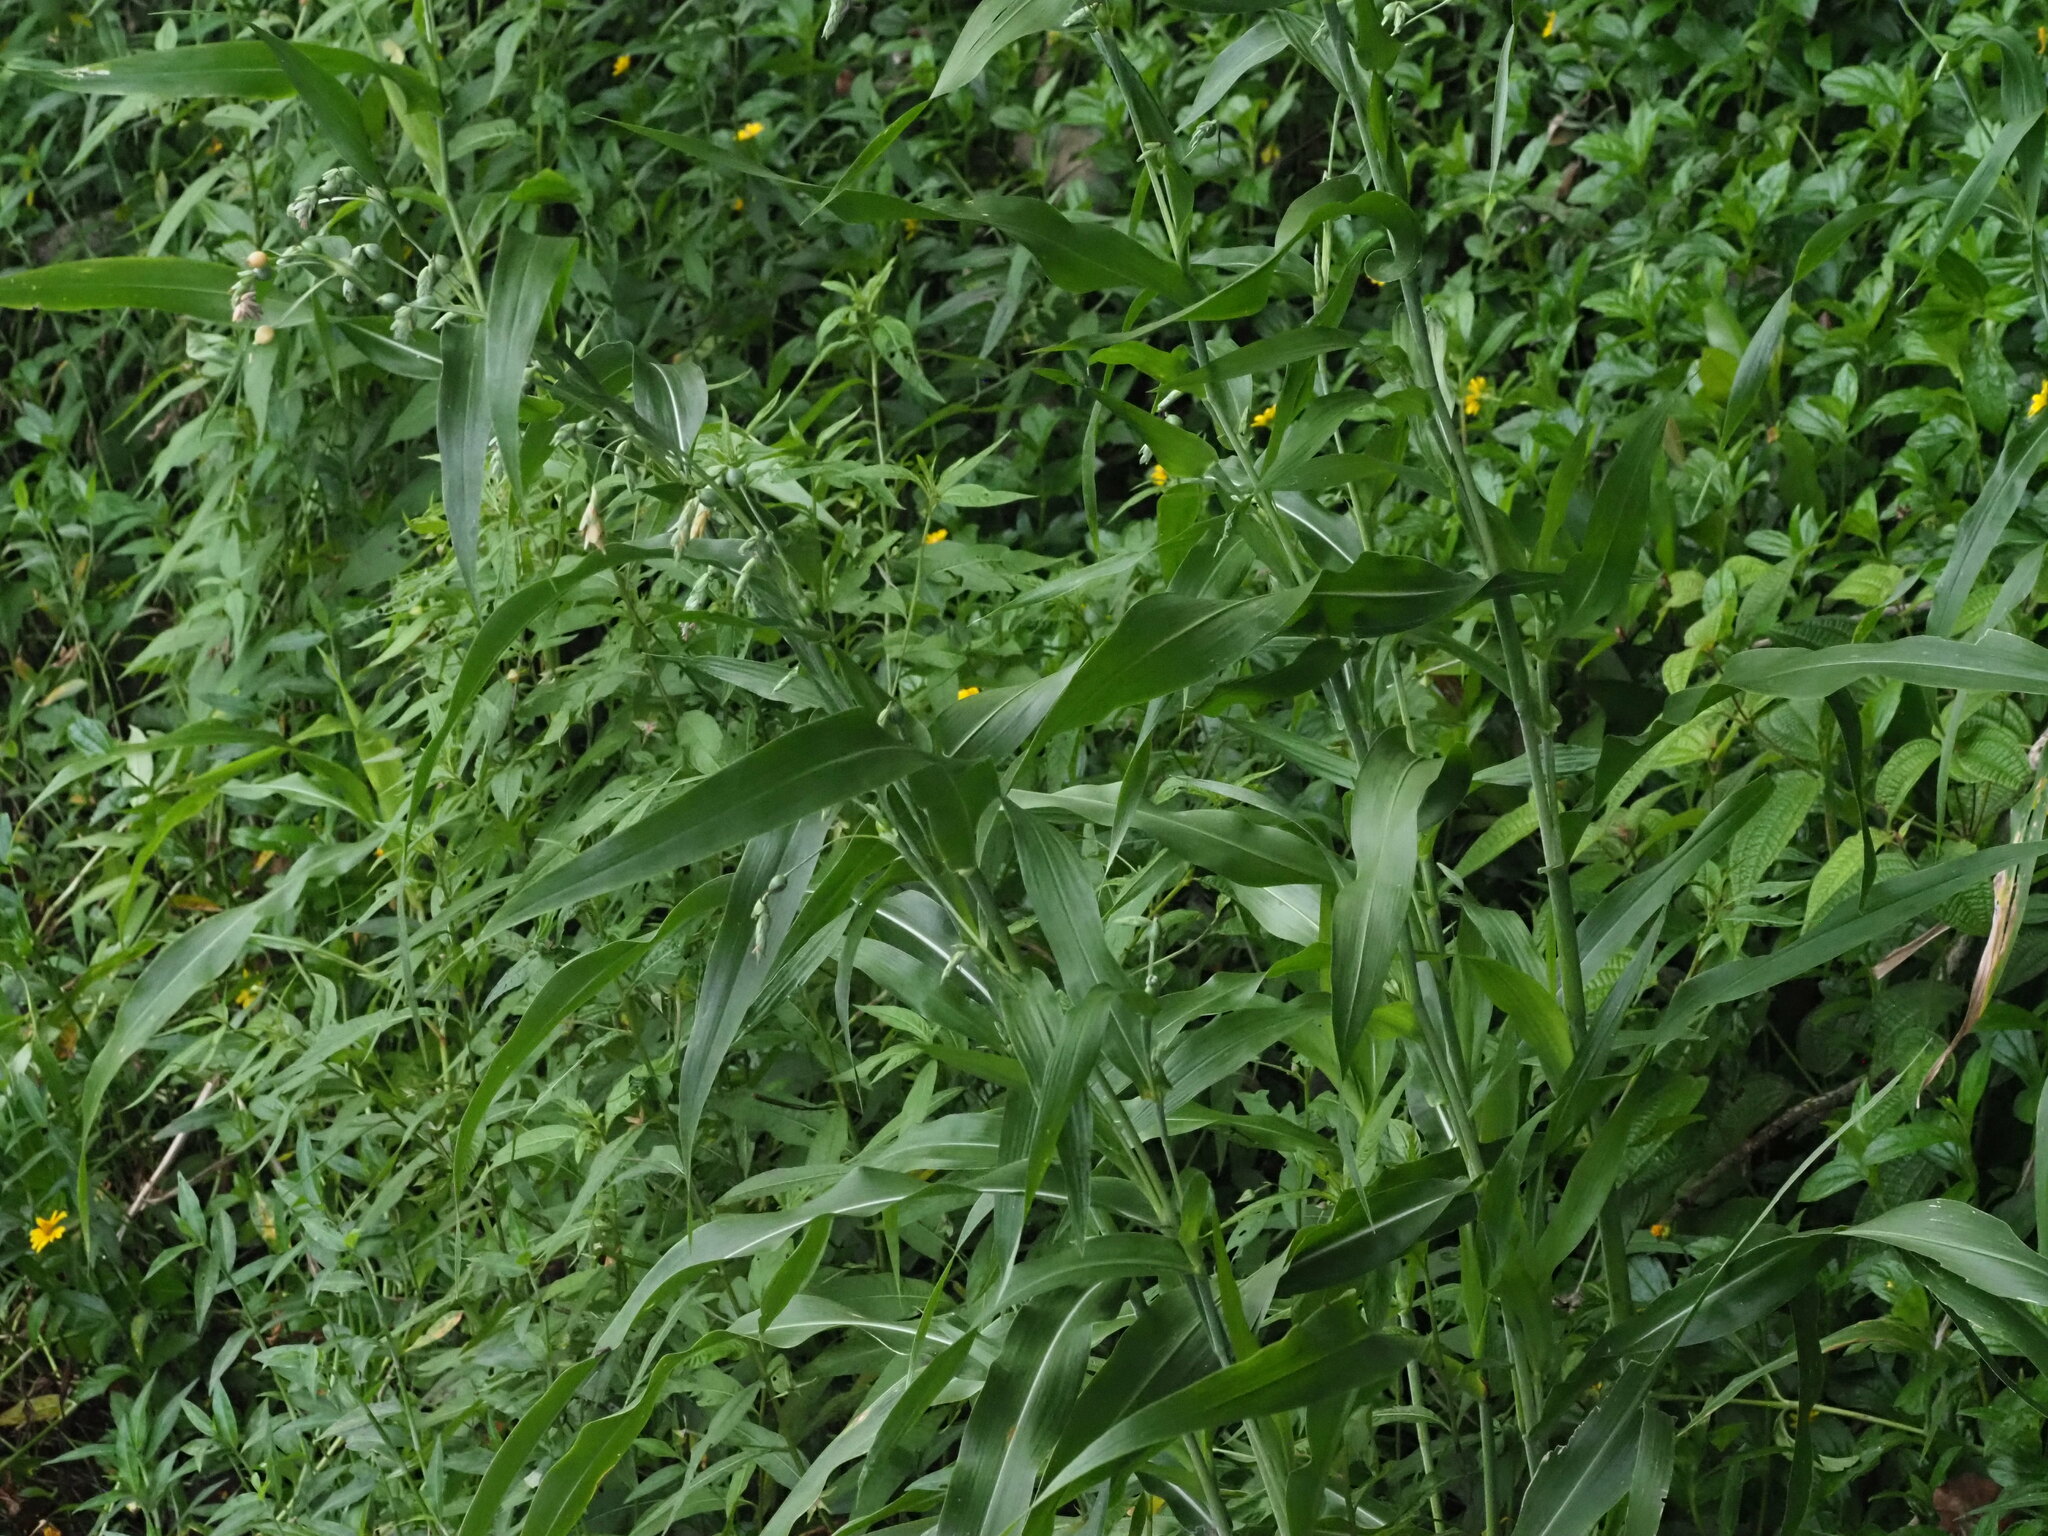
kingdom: Plantae
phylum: Tracheophyta
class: Liliopsida
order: Poales
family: Poaceae
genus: Coix
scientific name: Coix lacryma-jobi
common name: Job's tears
